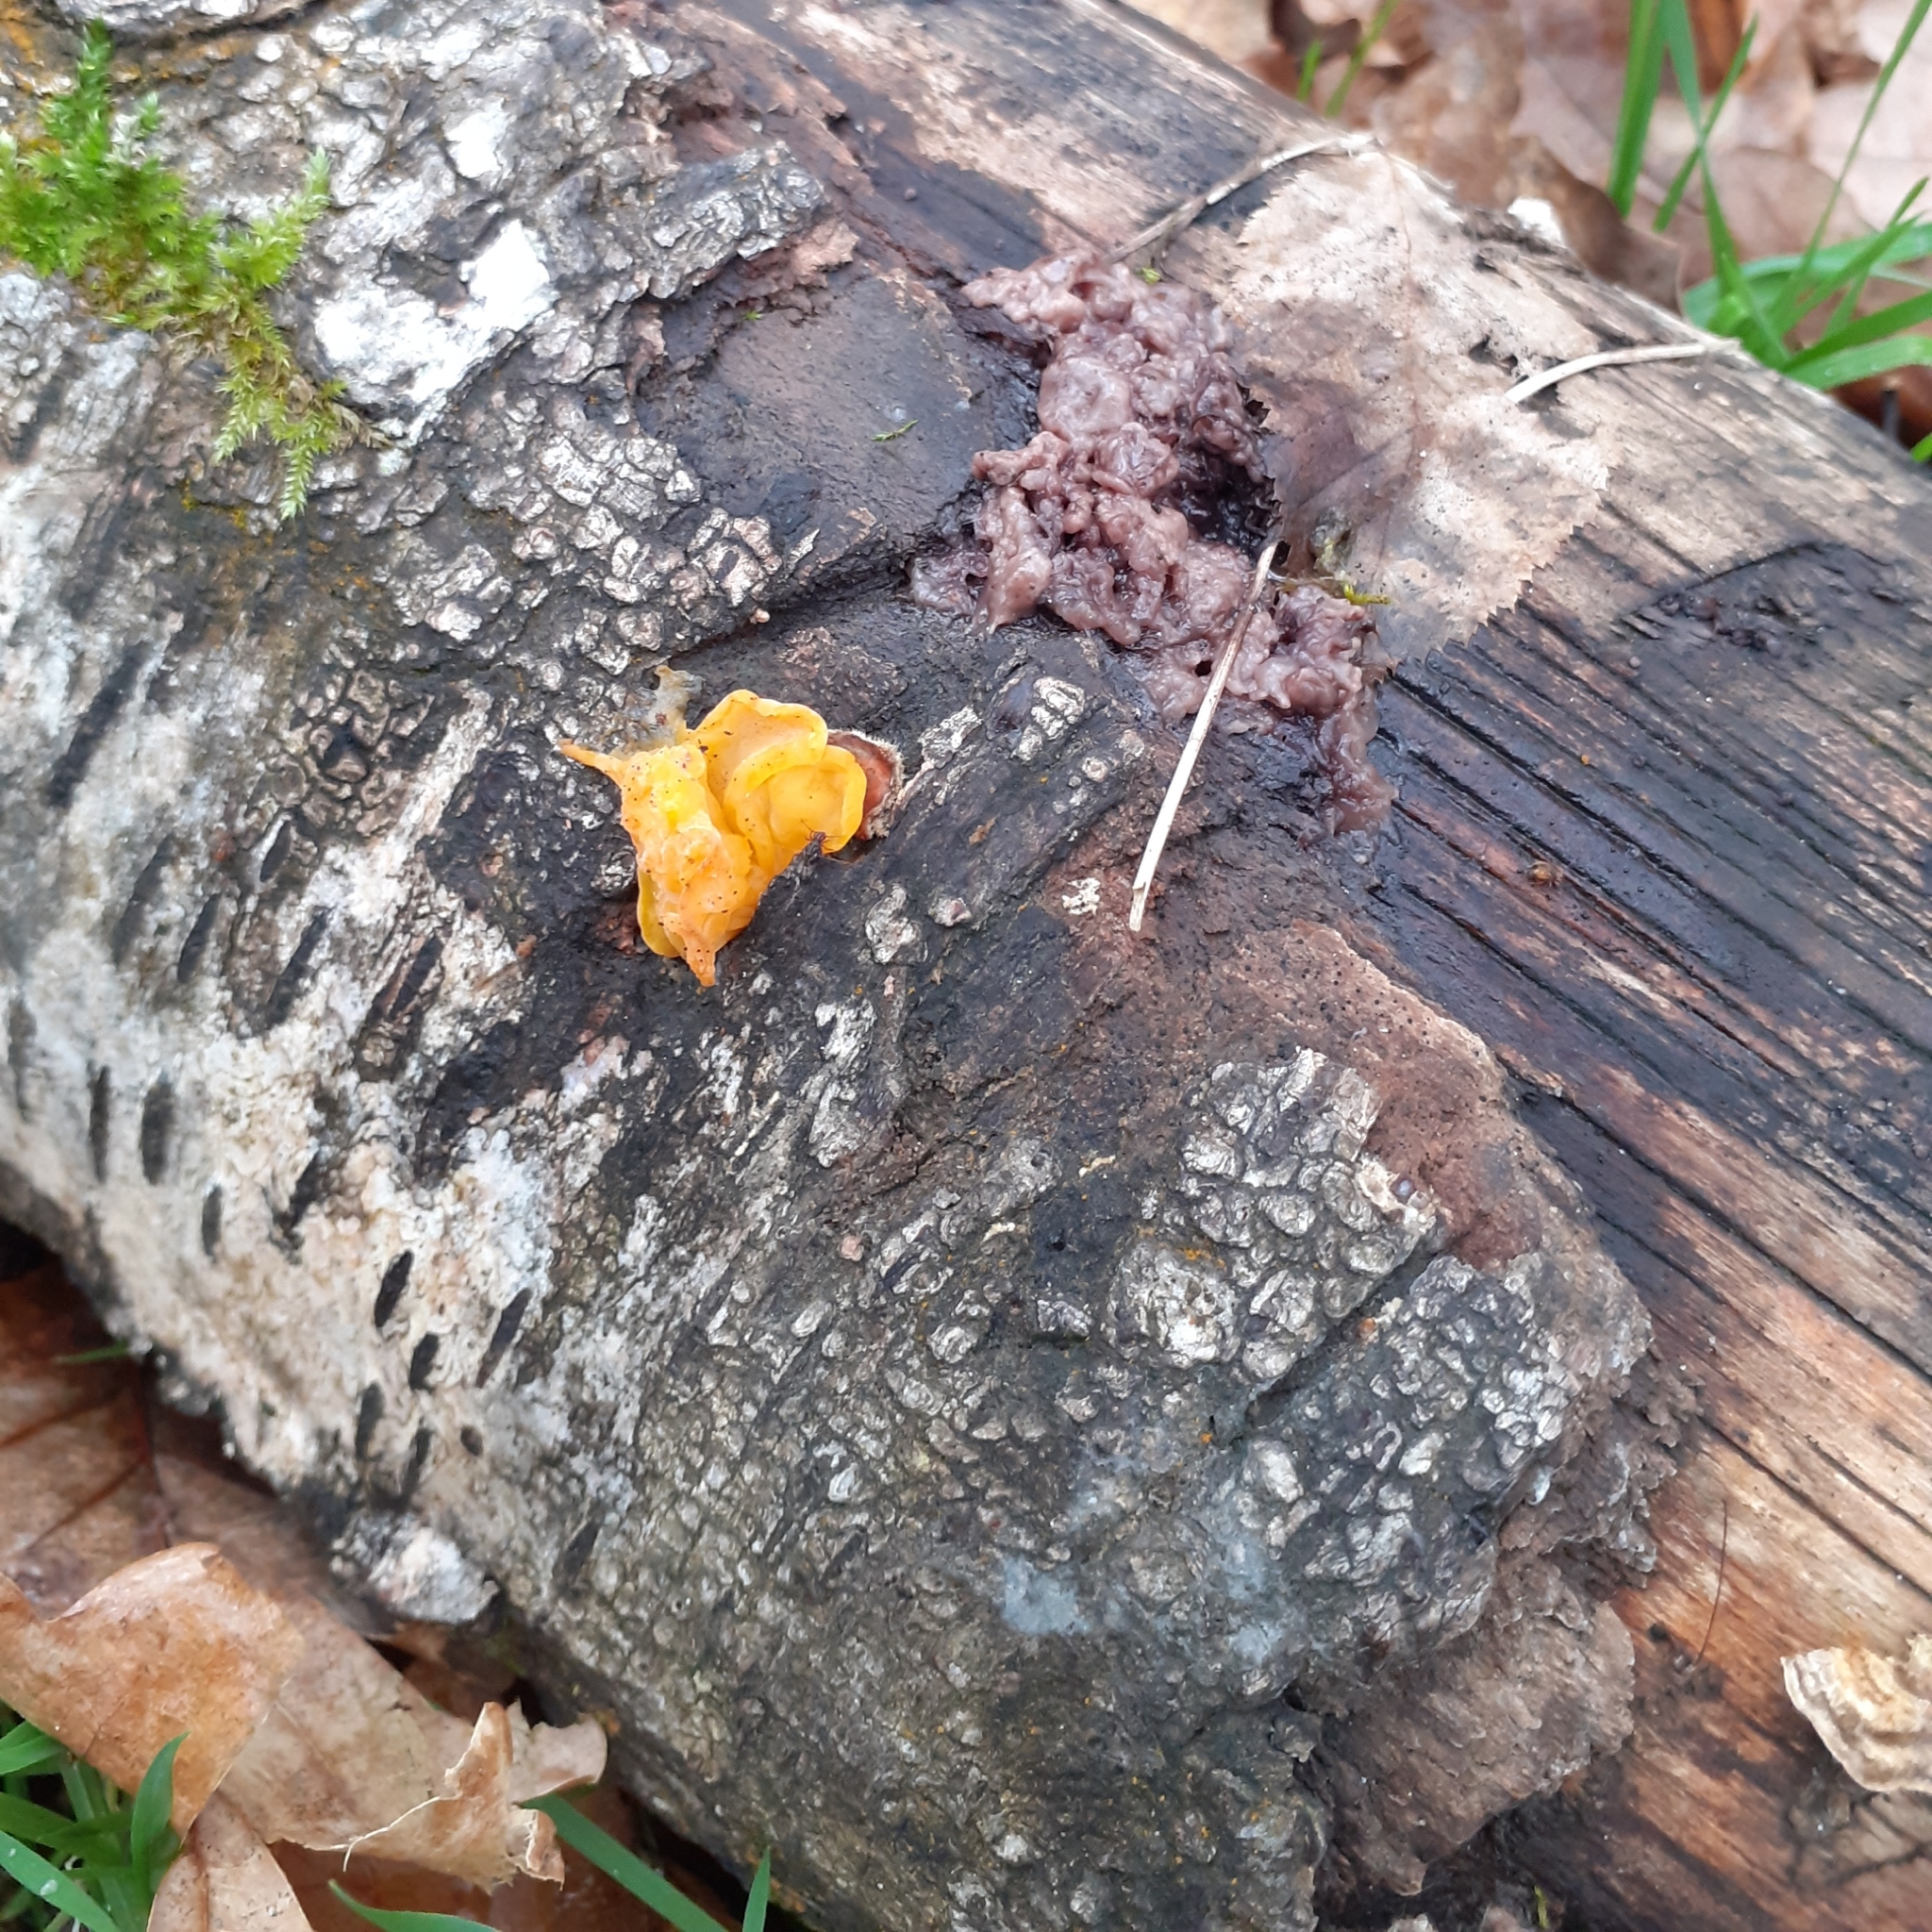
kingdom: Fungi
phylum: Basidiomycota
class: Tremellomycetes
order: Tremellales
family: Naemateliaceae
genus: Naematelia
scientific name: Naematelia aurantia
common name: Golden ear
